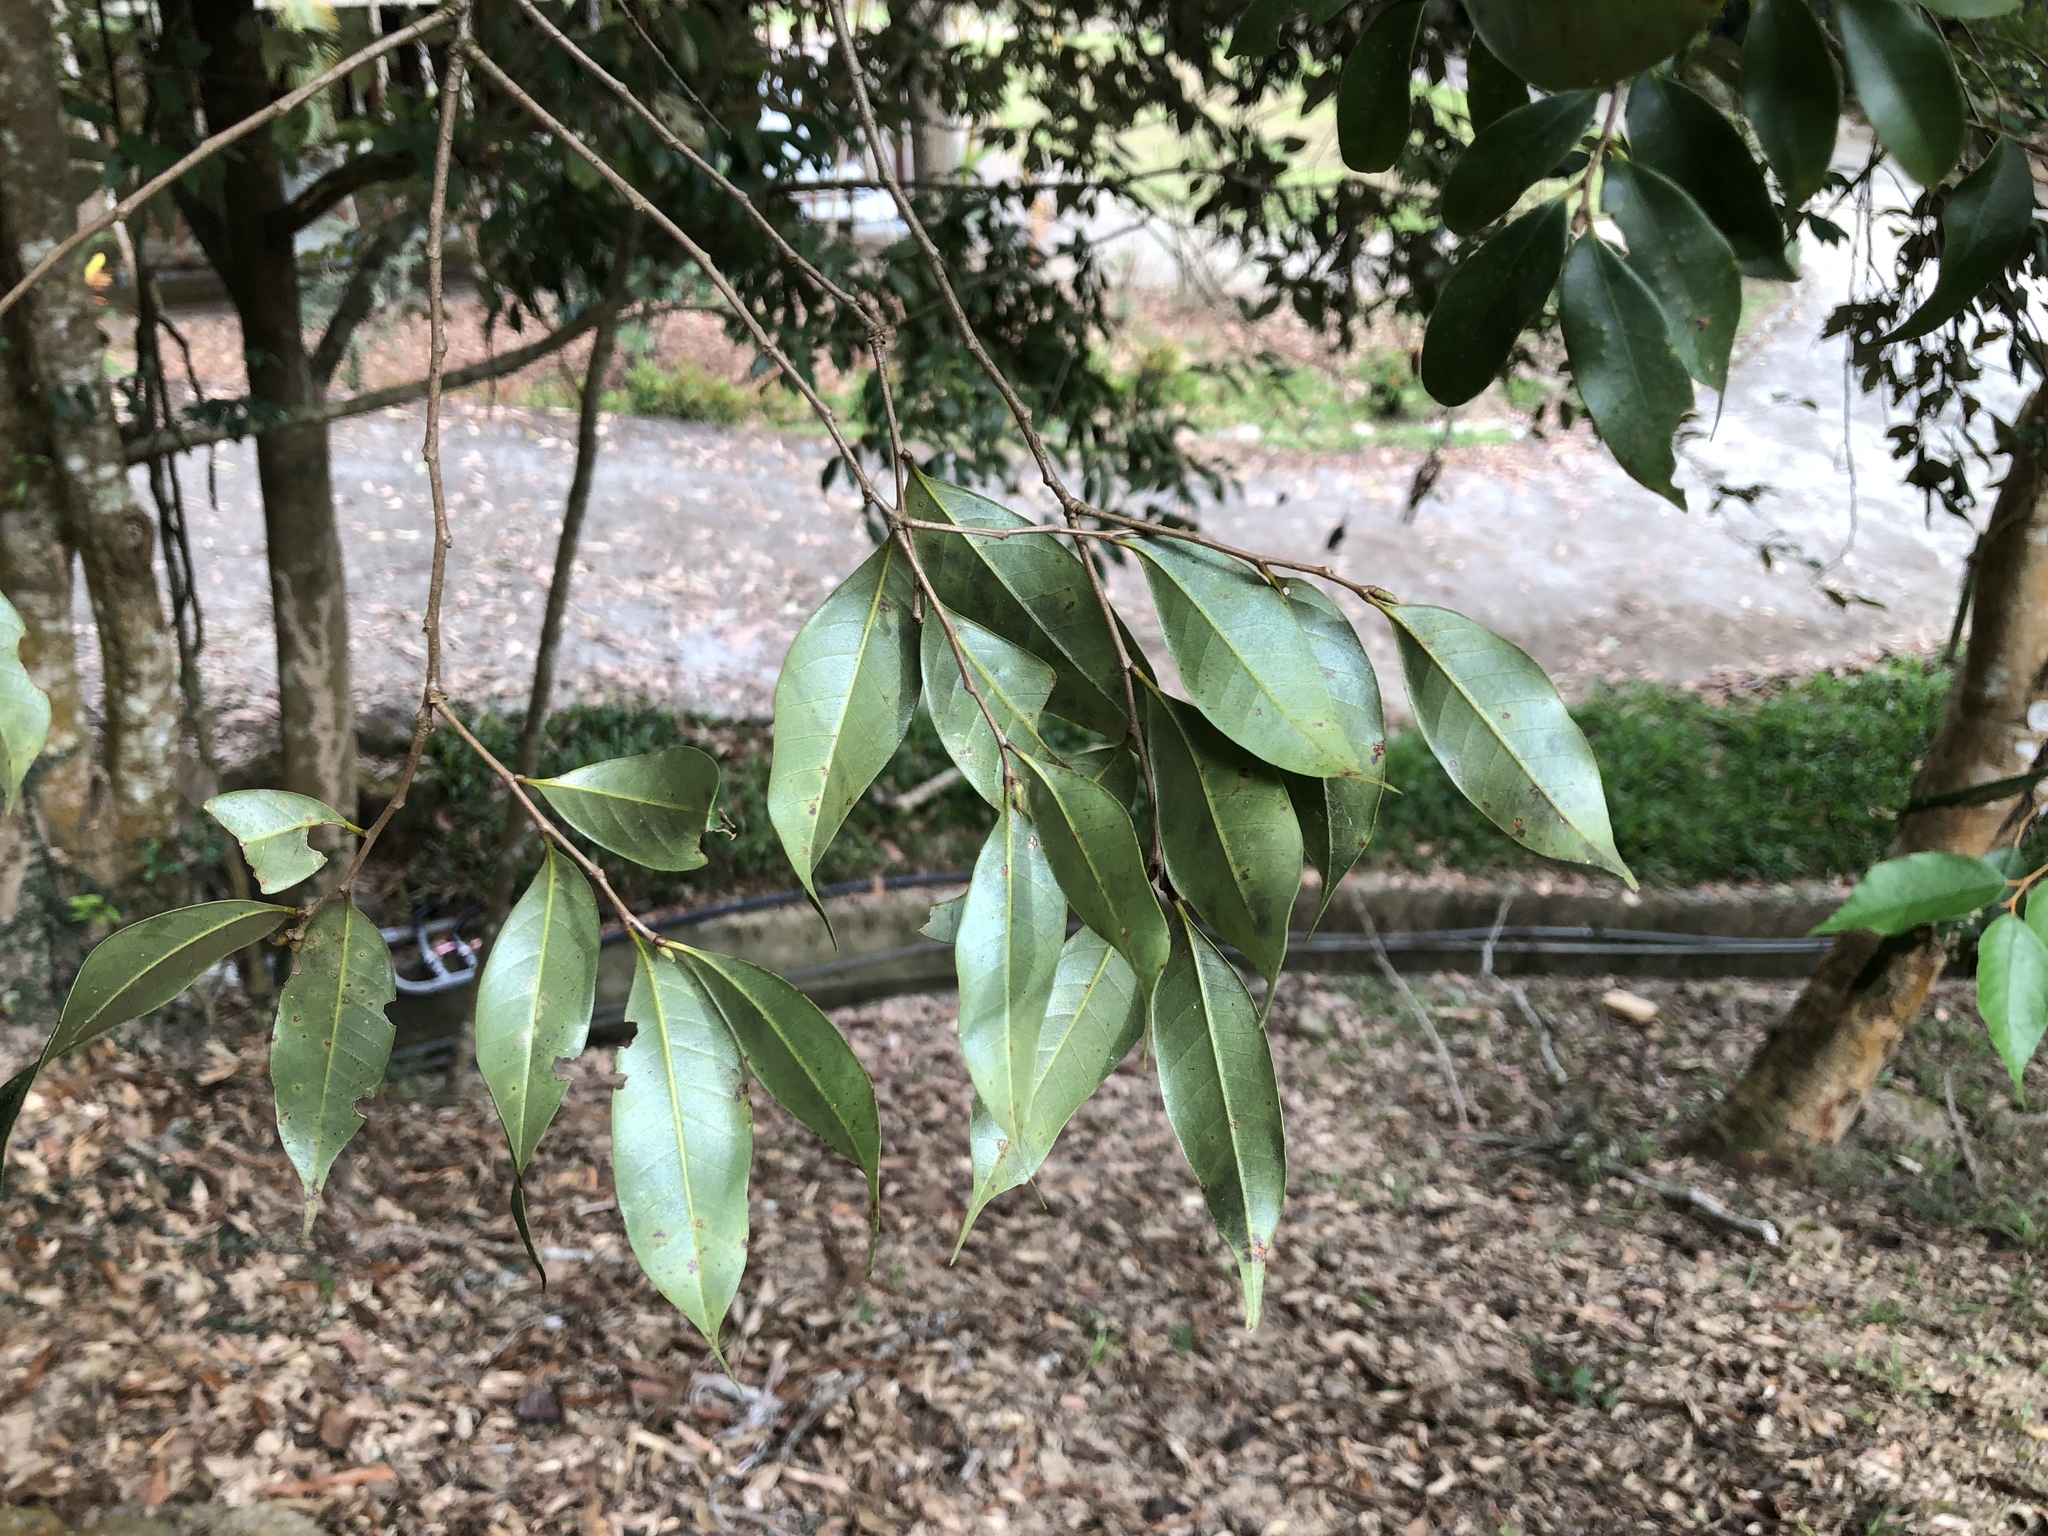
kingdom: Plantae
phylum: Tracheophyta
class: Magnoliopsida
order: Fagales
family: Fagaceae
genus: Lithocarpus
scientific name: Lithocarpus uraianus
